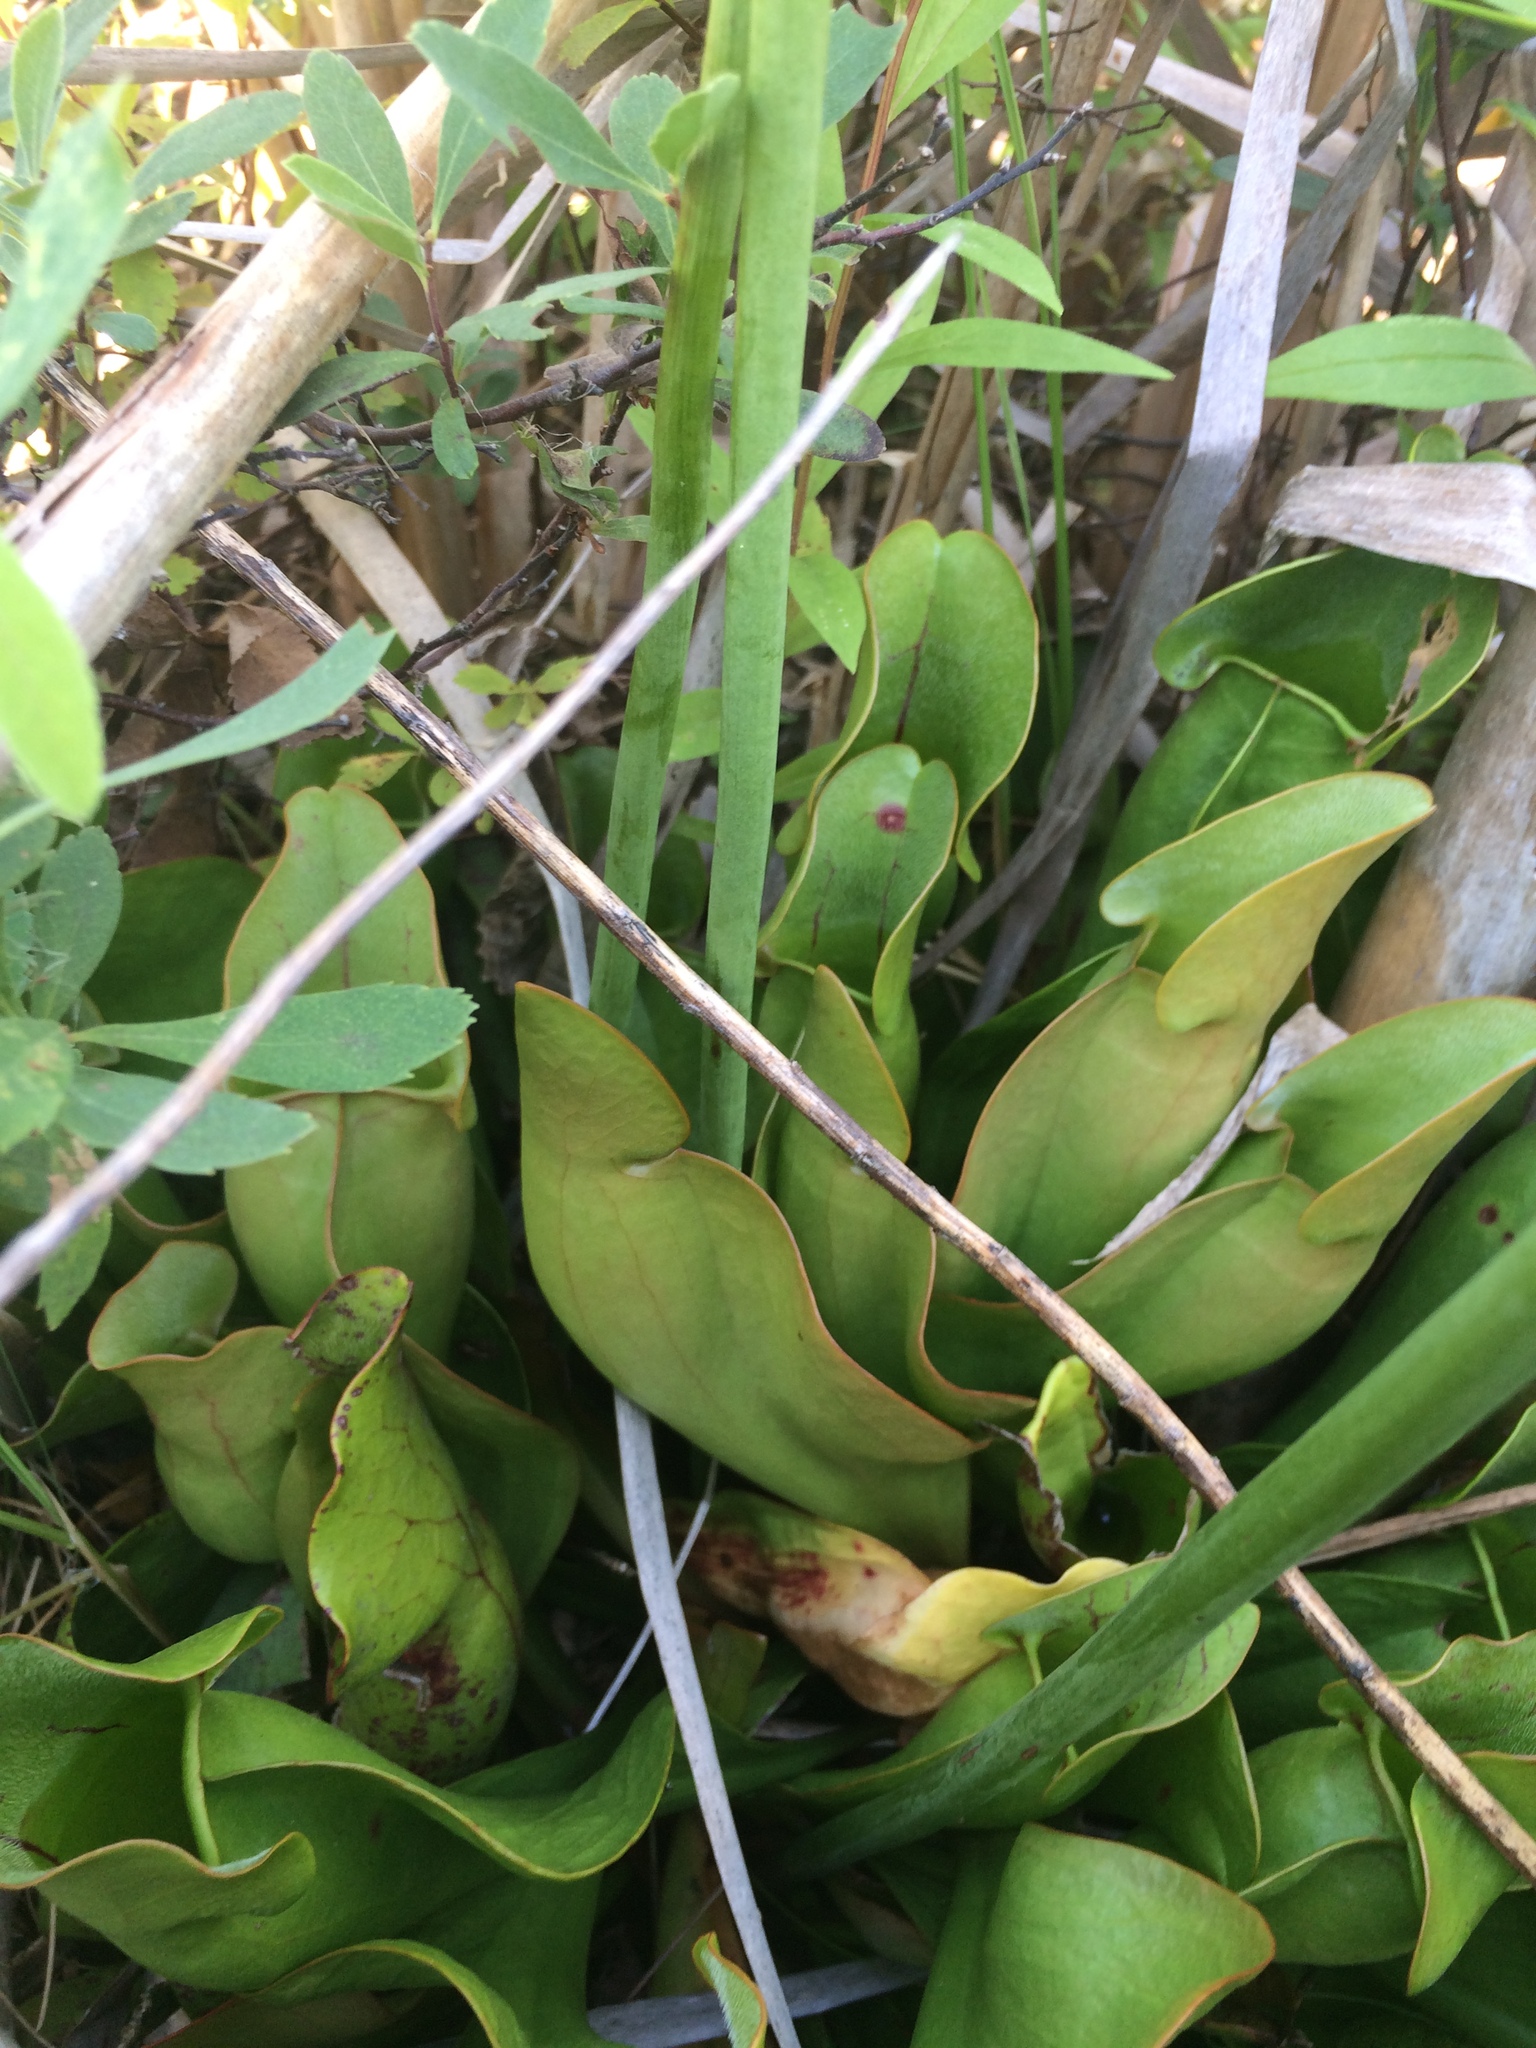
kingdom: Plantae
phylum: Tracheophyta
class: Magnoliopsida
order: Ericales
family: Sarraceniaceae
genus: Sarracenia
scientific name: Sarracenia purpurea
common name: Pitcherplant
